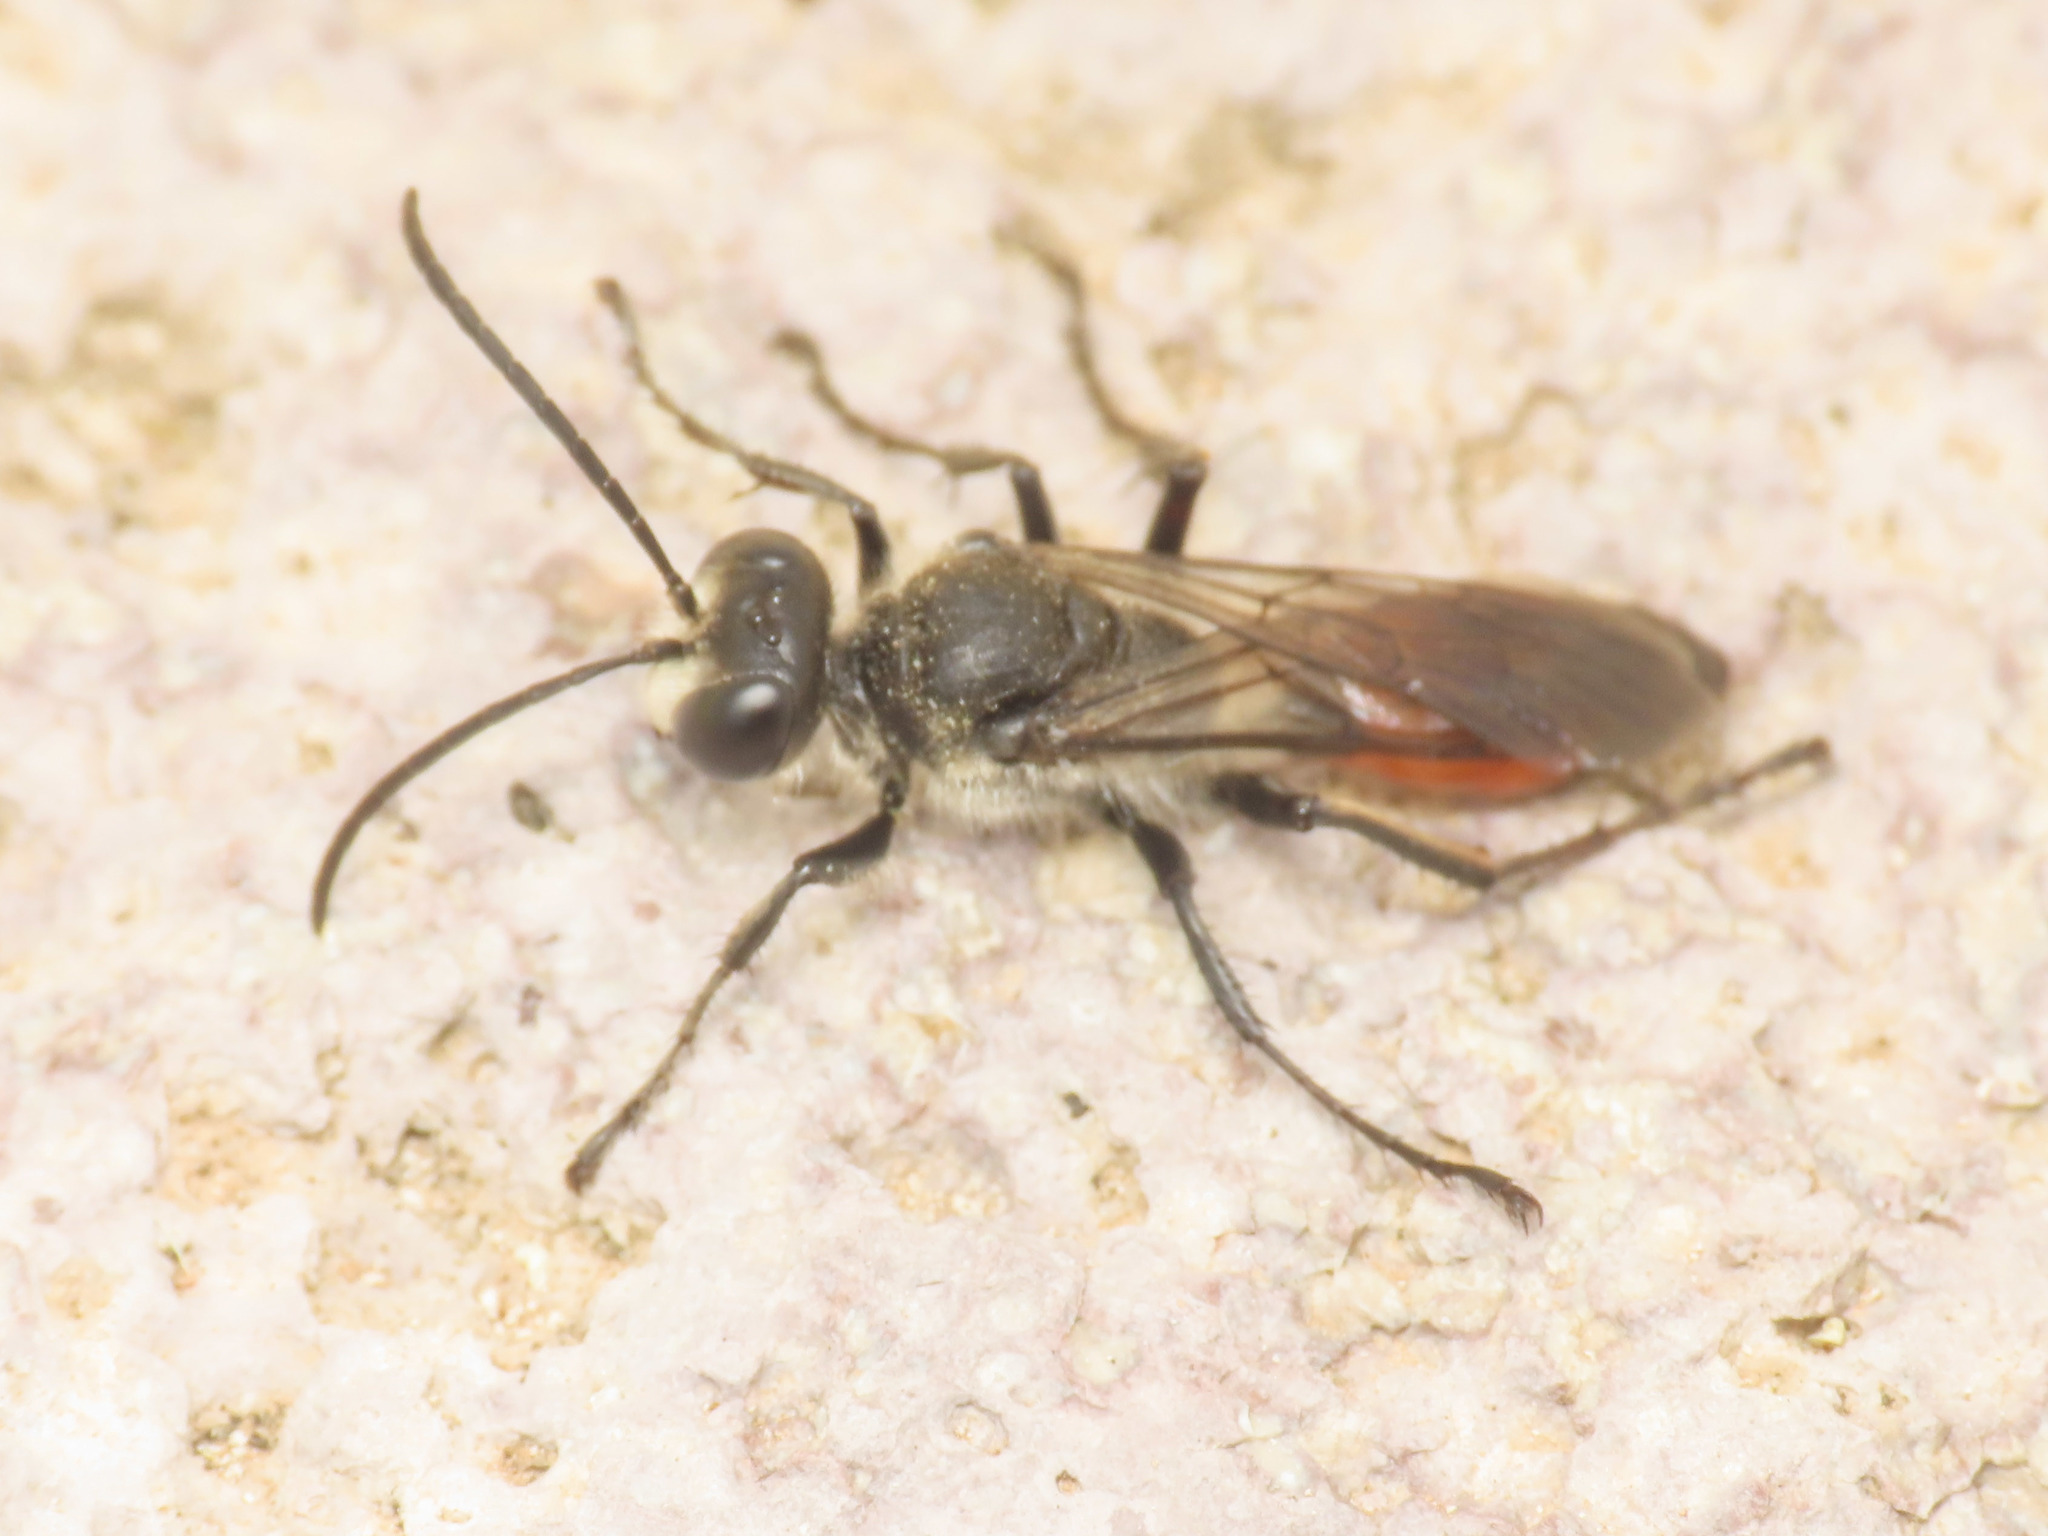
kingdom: Animalia
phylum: Arthropoda
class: Insecta
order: Hymenoptera
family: Sphecidae
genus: Sphex
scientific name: Sphex funerarius
